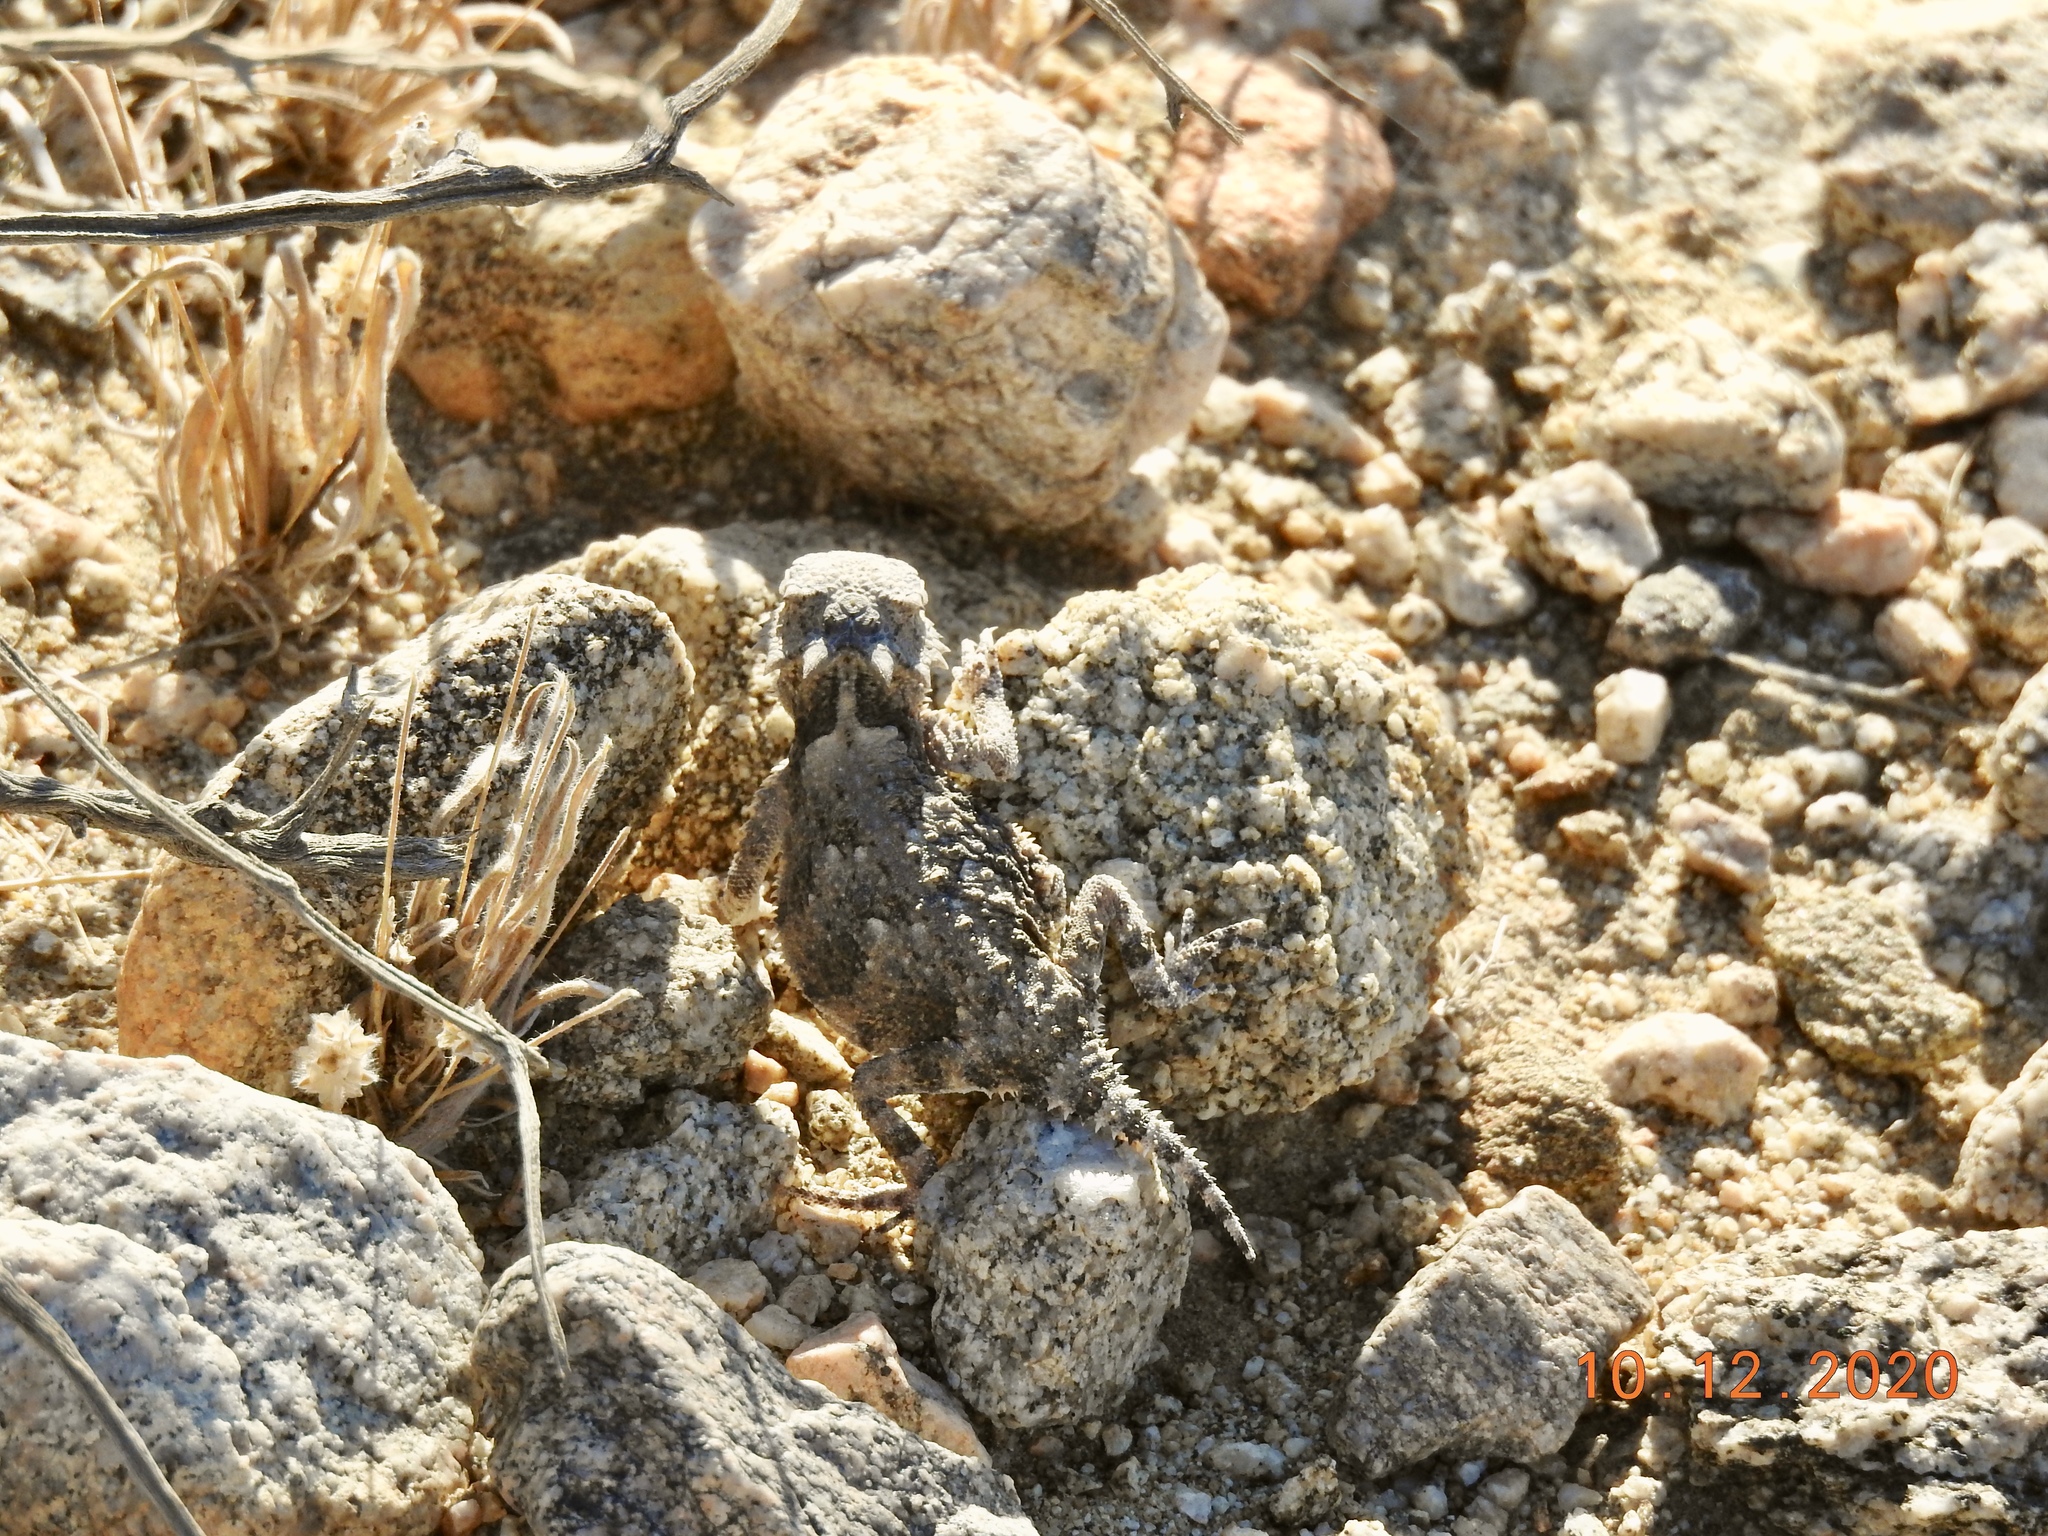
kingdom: Animalia
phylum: Chordata
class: Squamata
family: Phrynosomatidae
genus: Phrynosoma
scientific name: Phrynosoma platyrhinos
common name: Desert horned lizard
